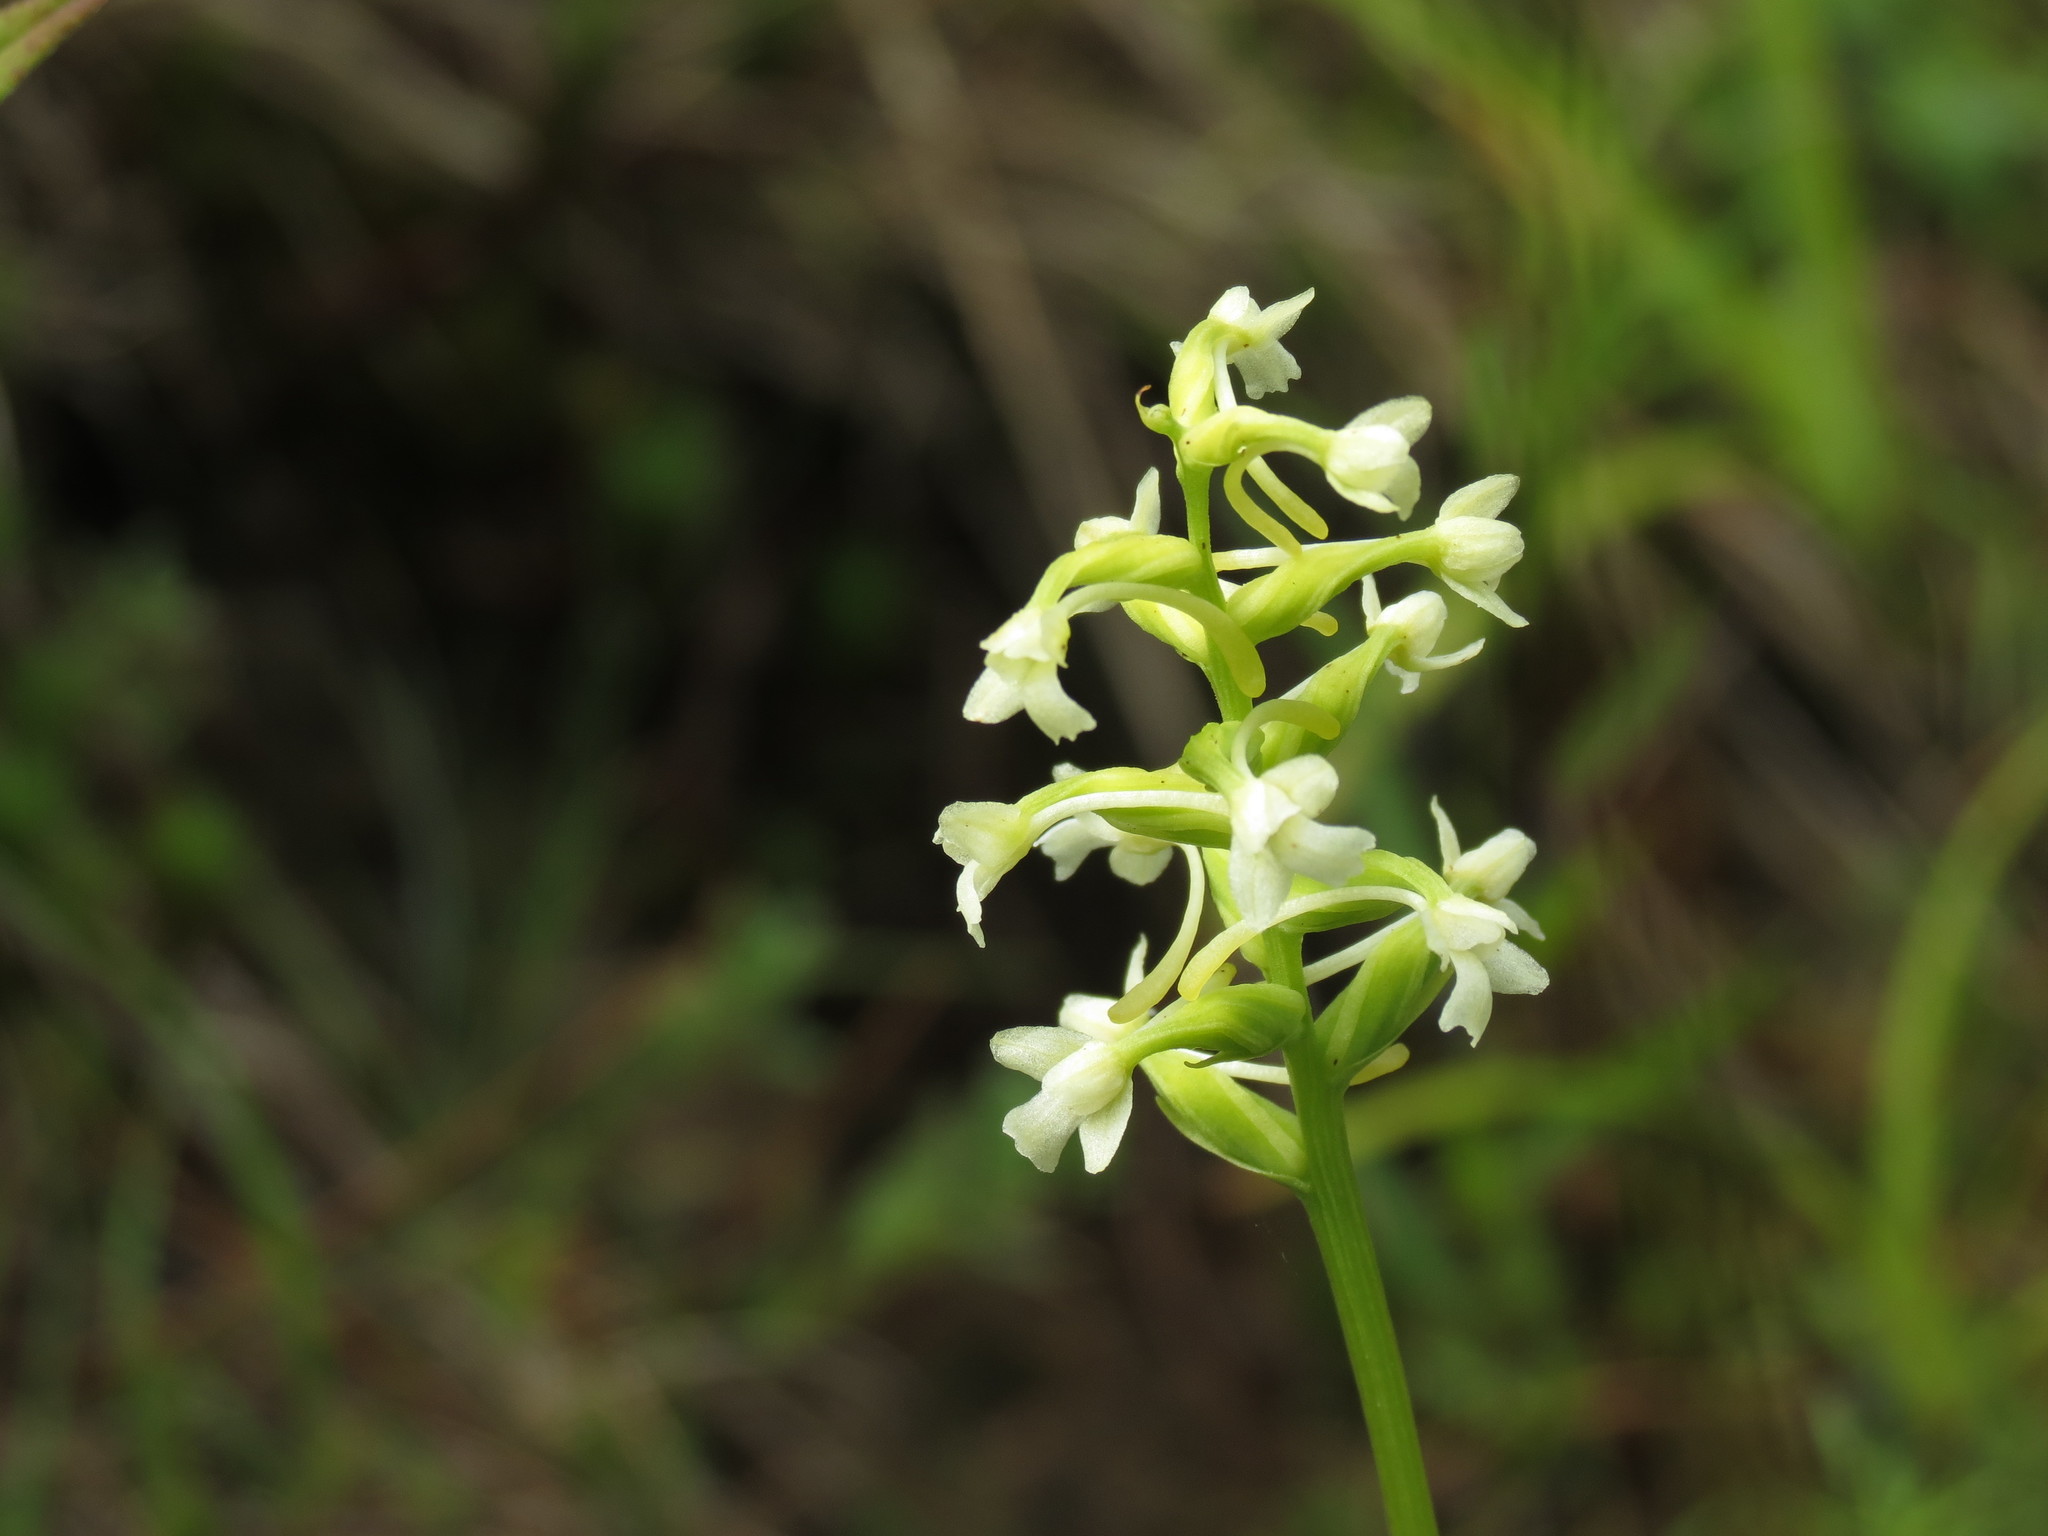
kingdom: Plantae
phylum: Tracheophyta
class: Liliopsida
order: Asparagales
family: Orchidaceae
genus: Platanthera
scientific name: Platanthera clavellata
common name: Club-spur orchid
